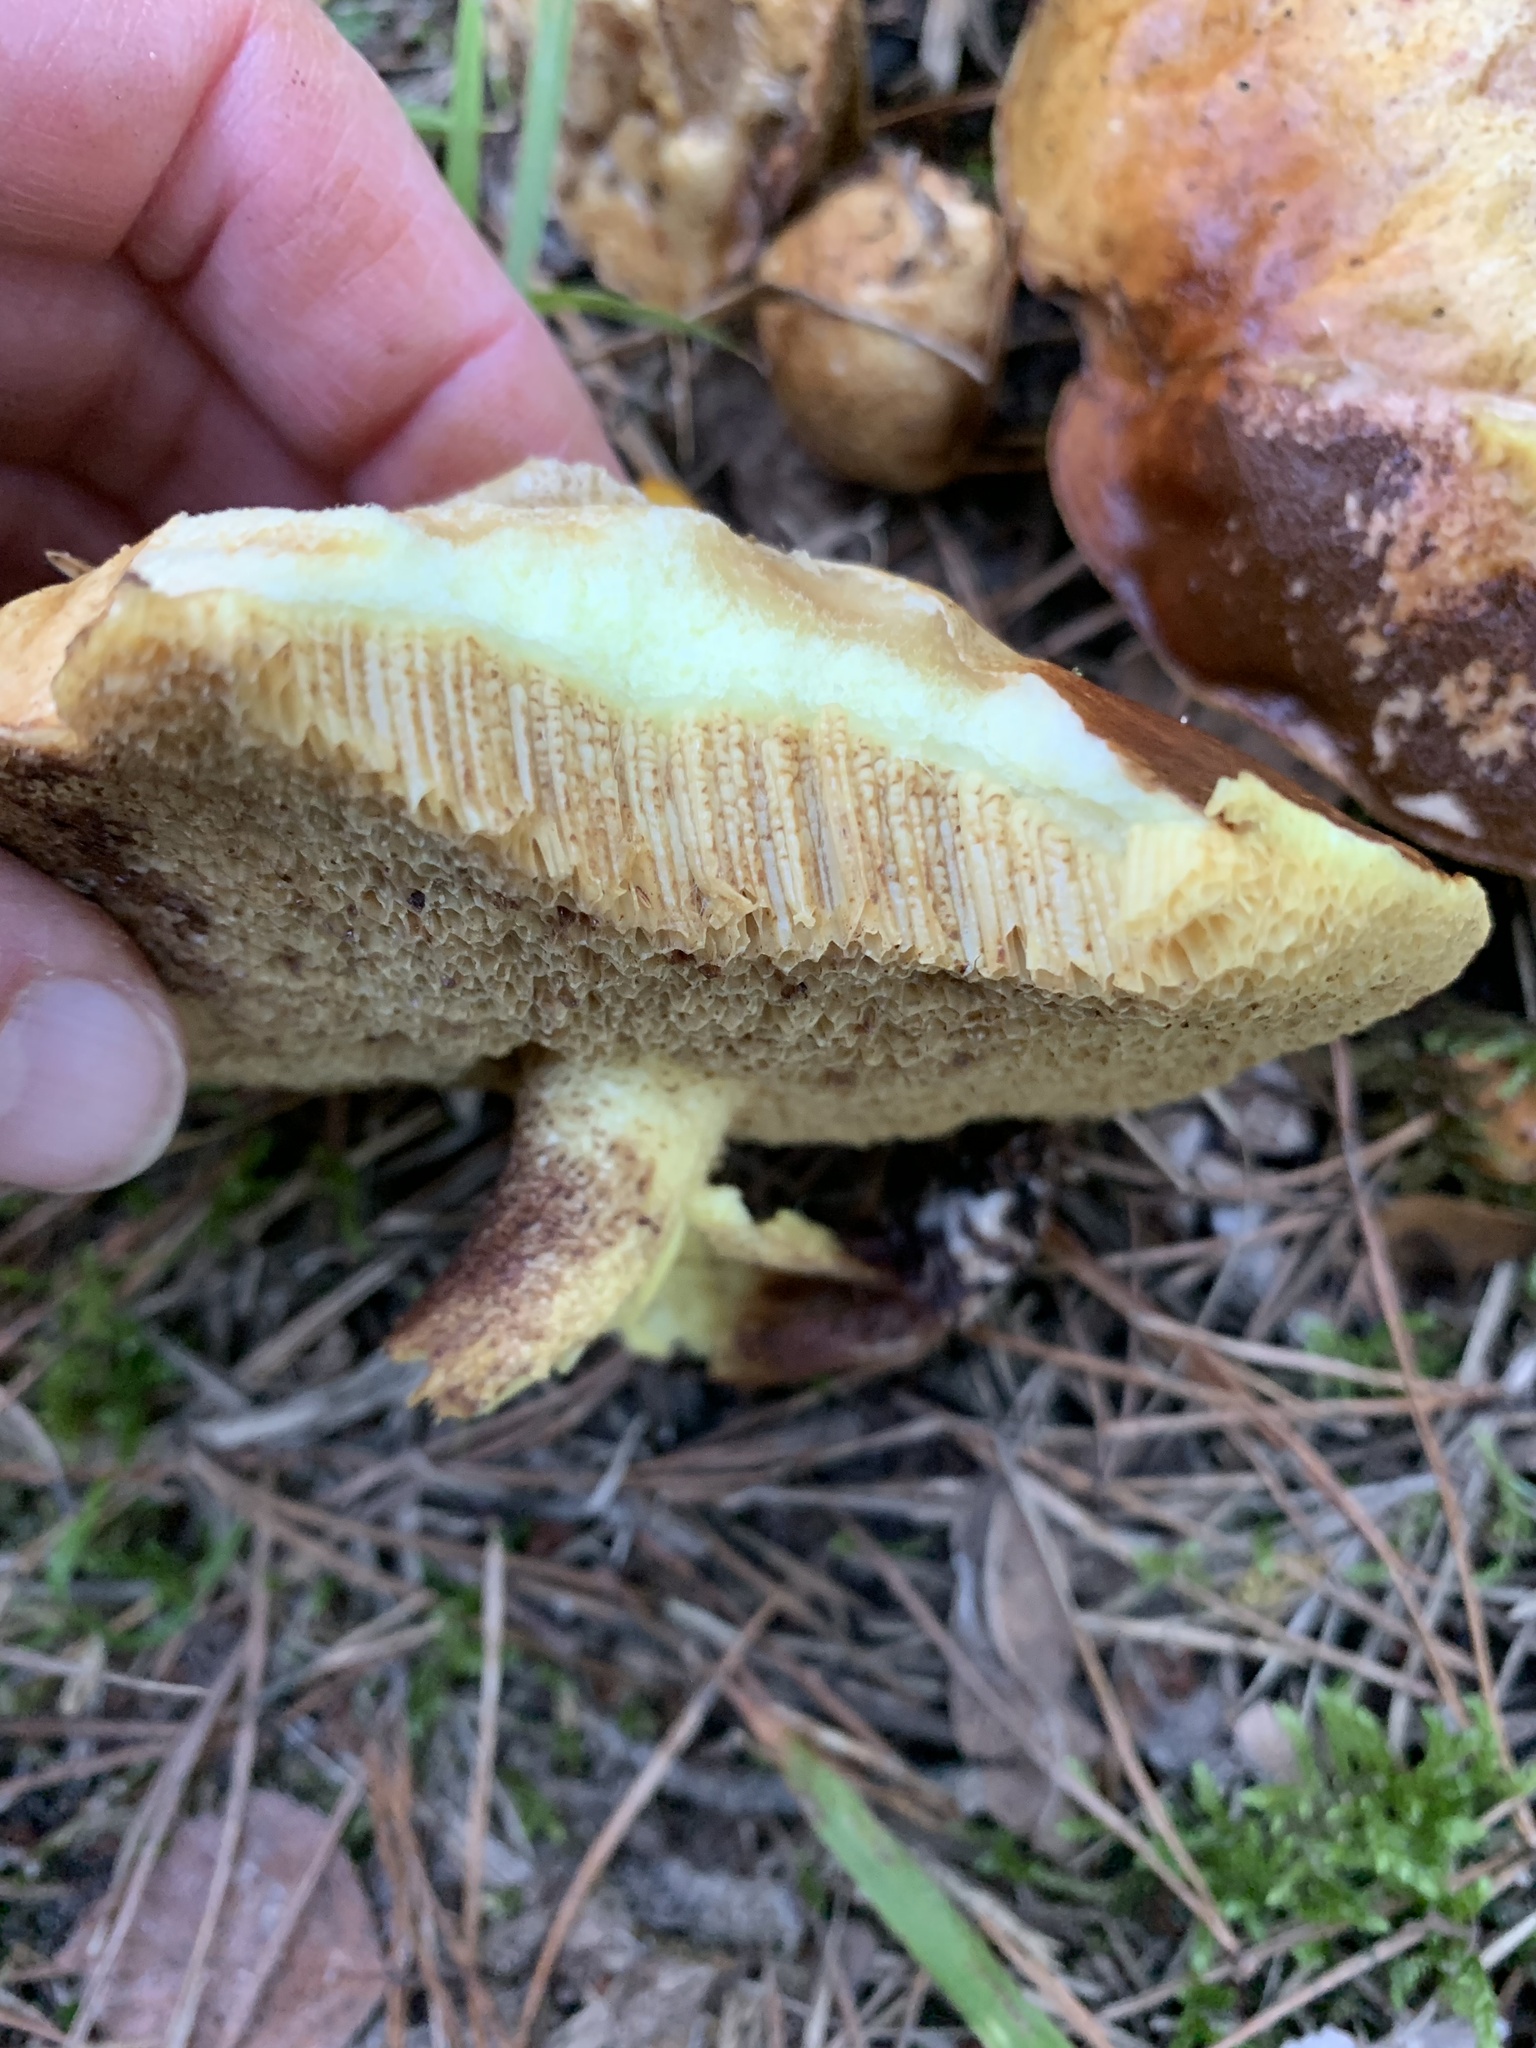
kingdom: Fungi
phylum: Basidiomycota
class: Agaricomycetes
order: Boletales
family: Suillaceae
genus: Suillus
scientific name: Suillus bovinus
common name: Bovine bolete
